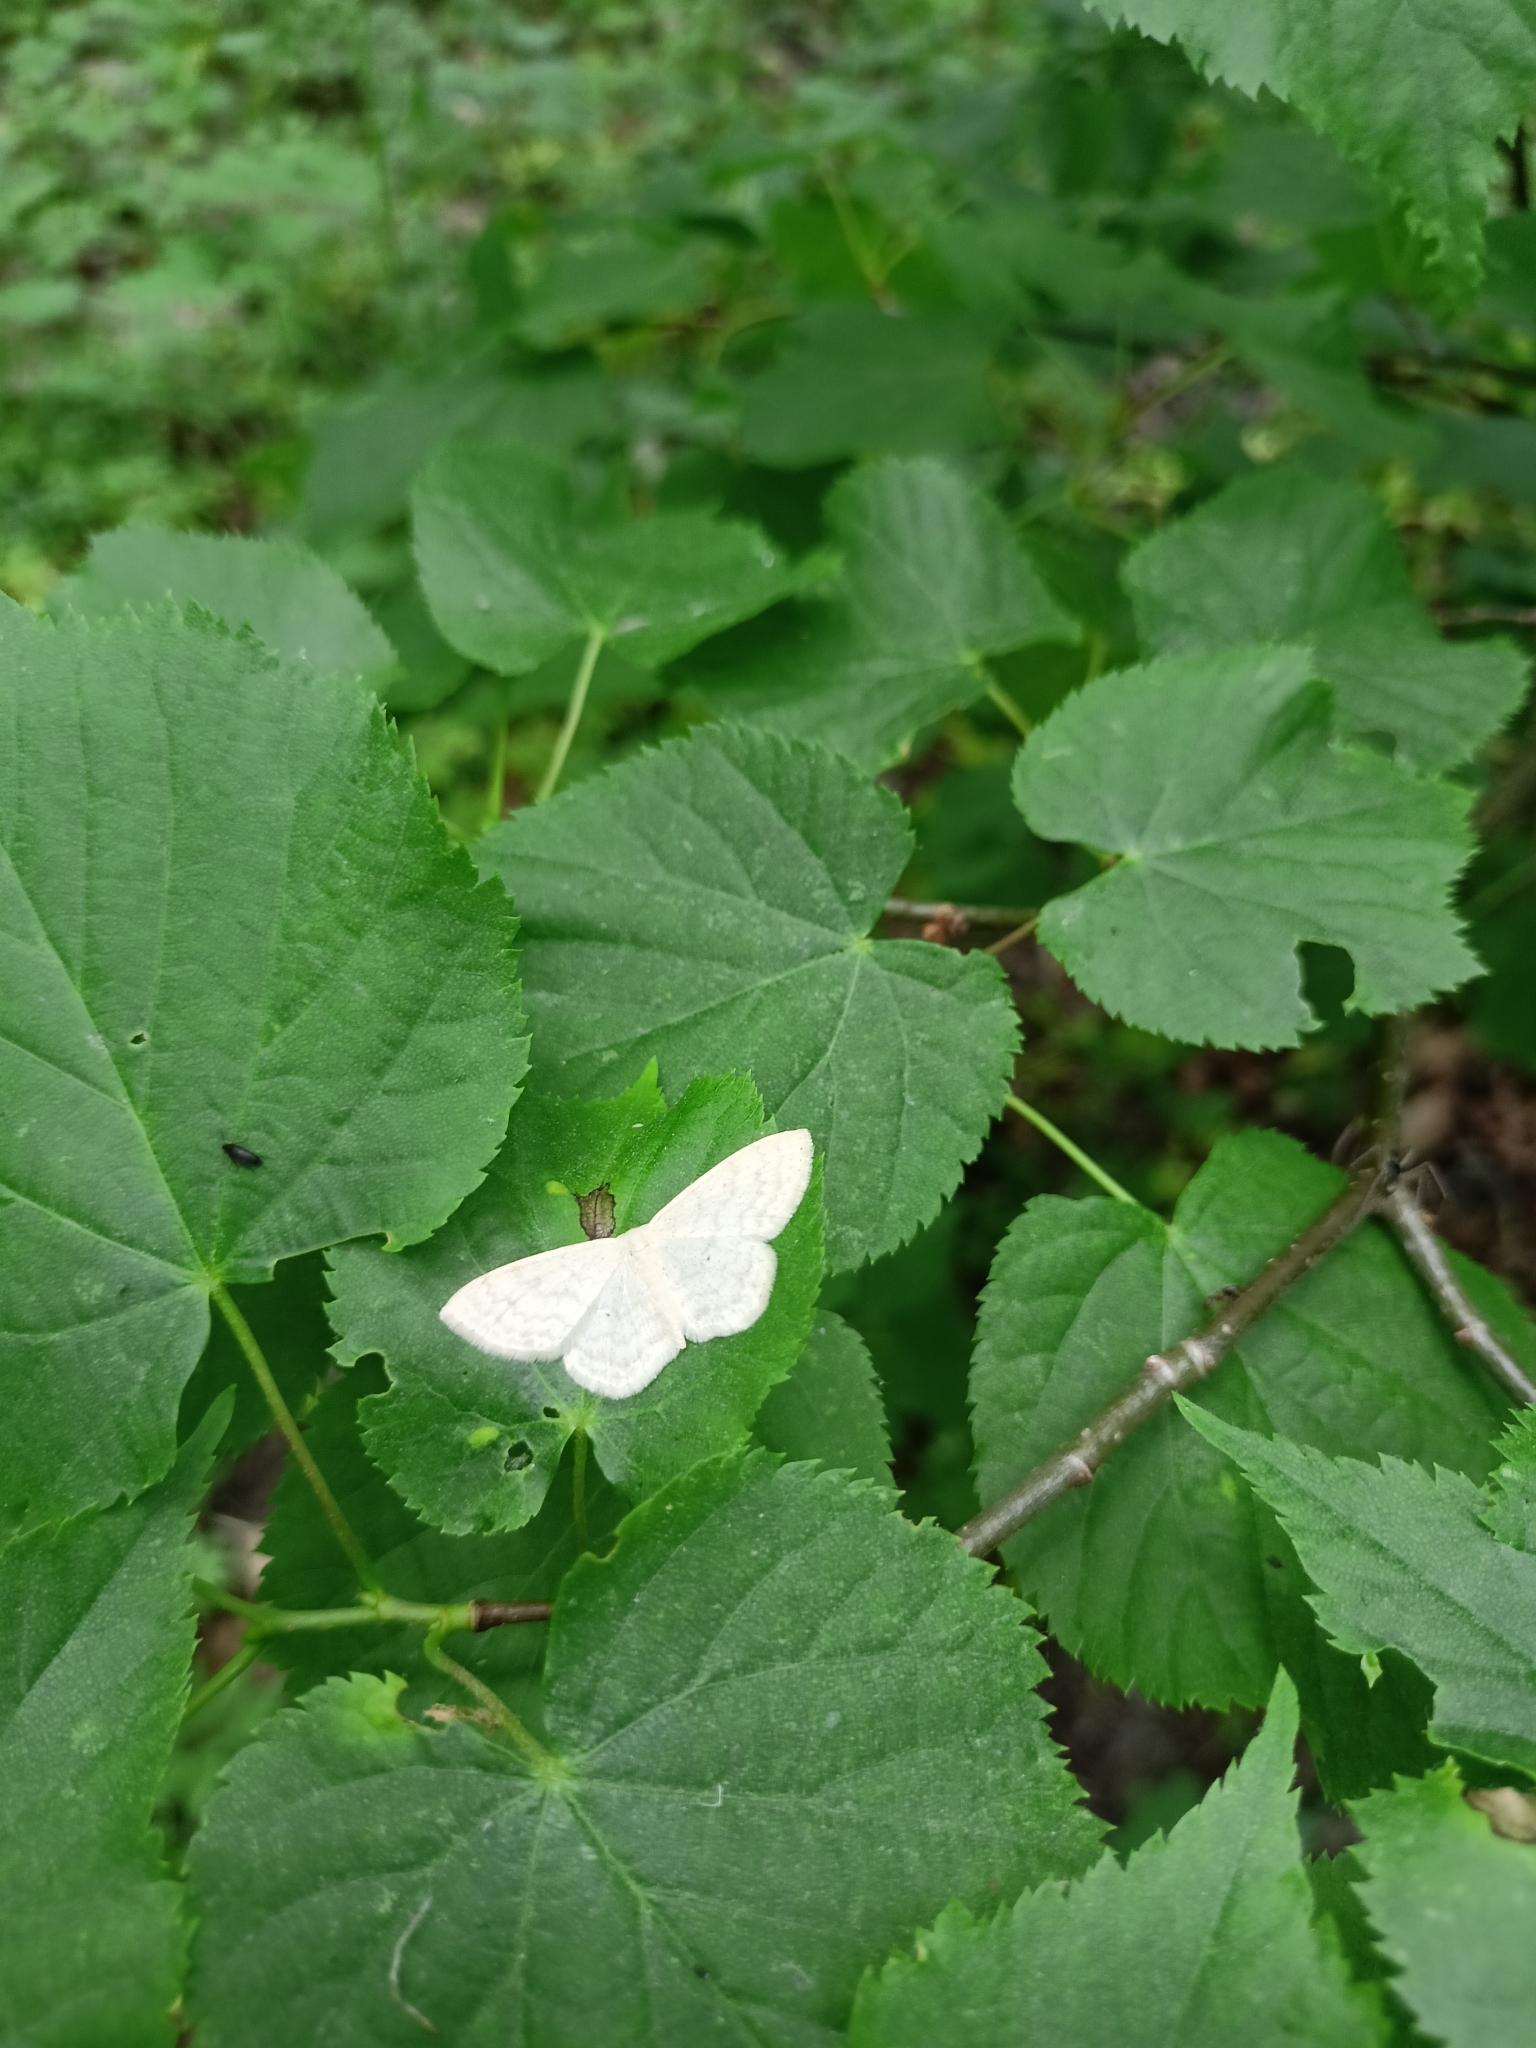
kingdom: Animalia
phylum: Arthropoda
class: Insecta
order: Lepidoptera
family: Geometridae
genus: Scopula
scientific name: Scopula floslactata
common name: Cream wave
